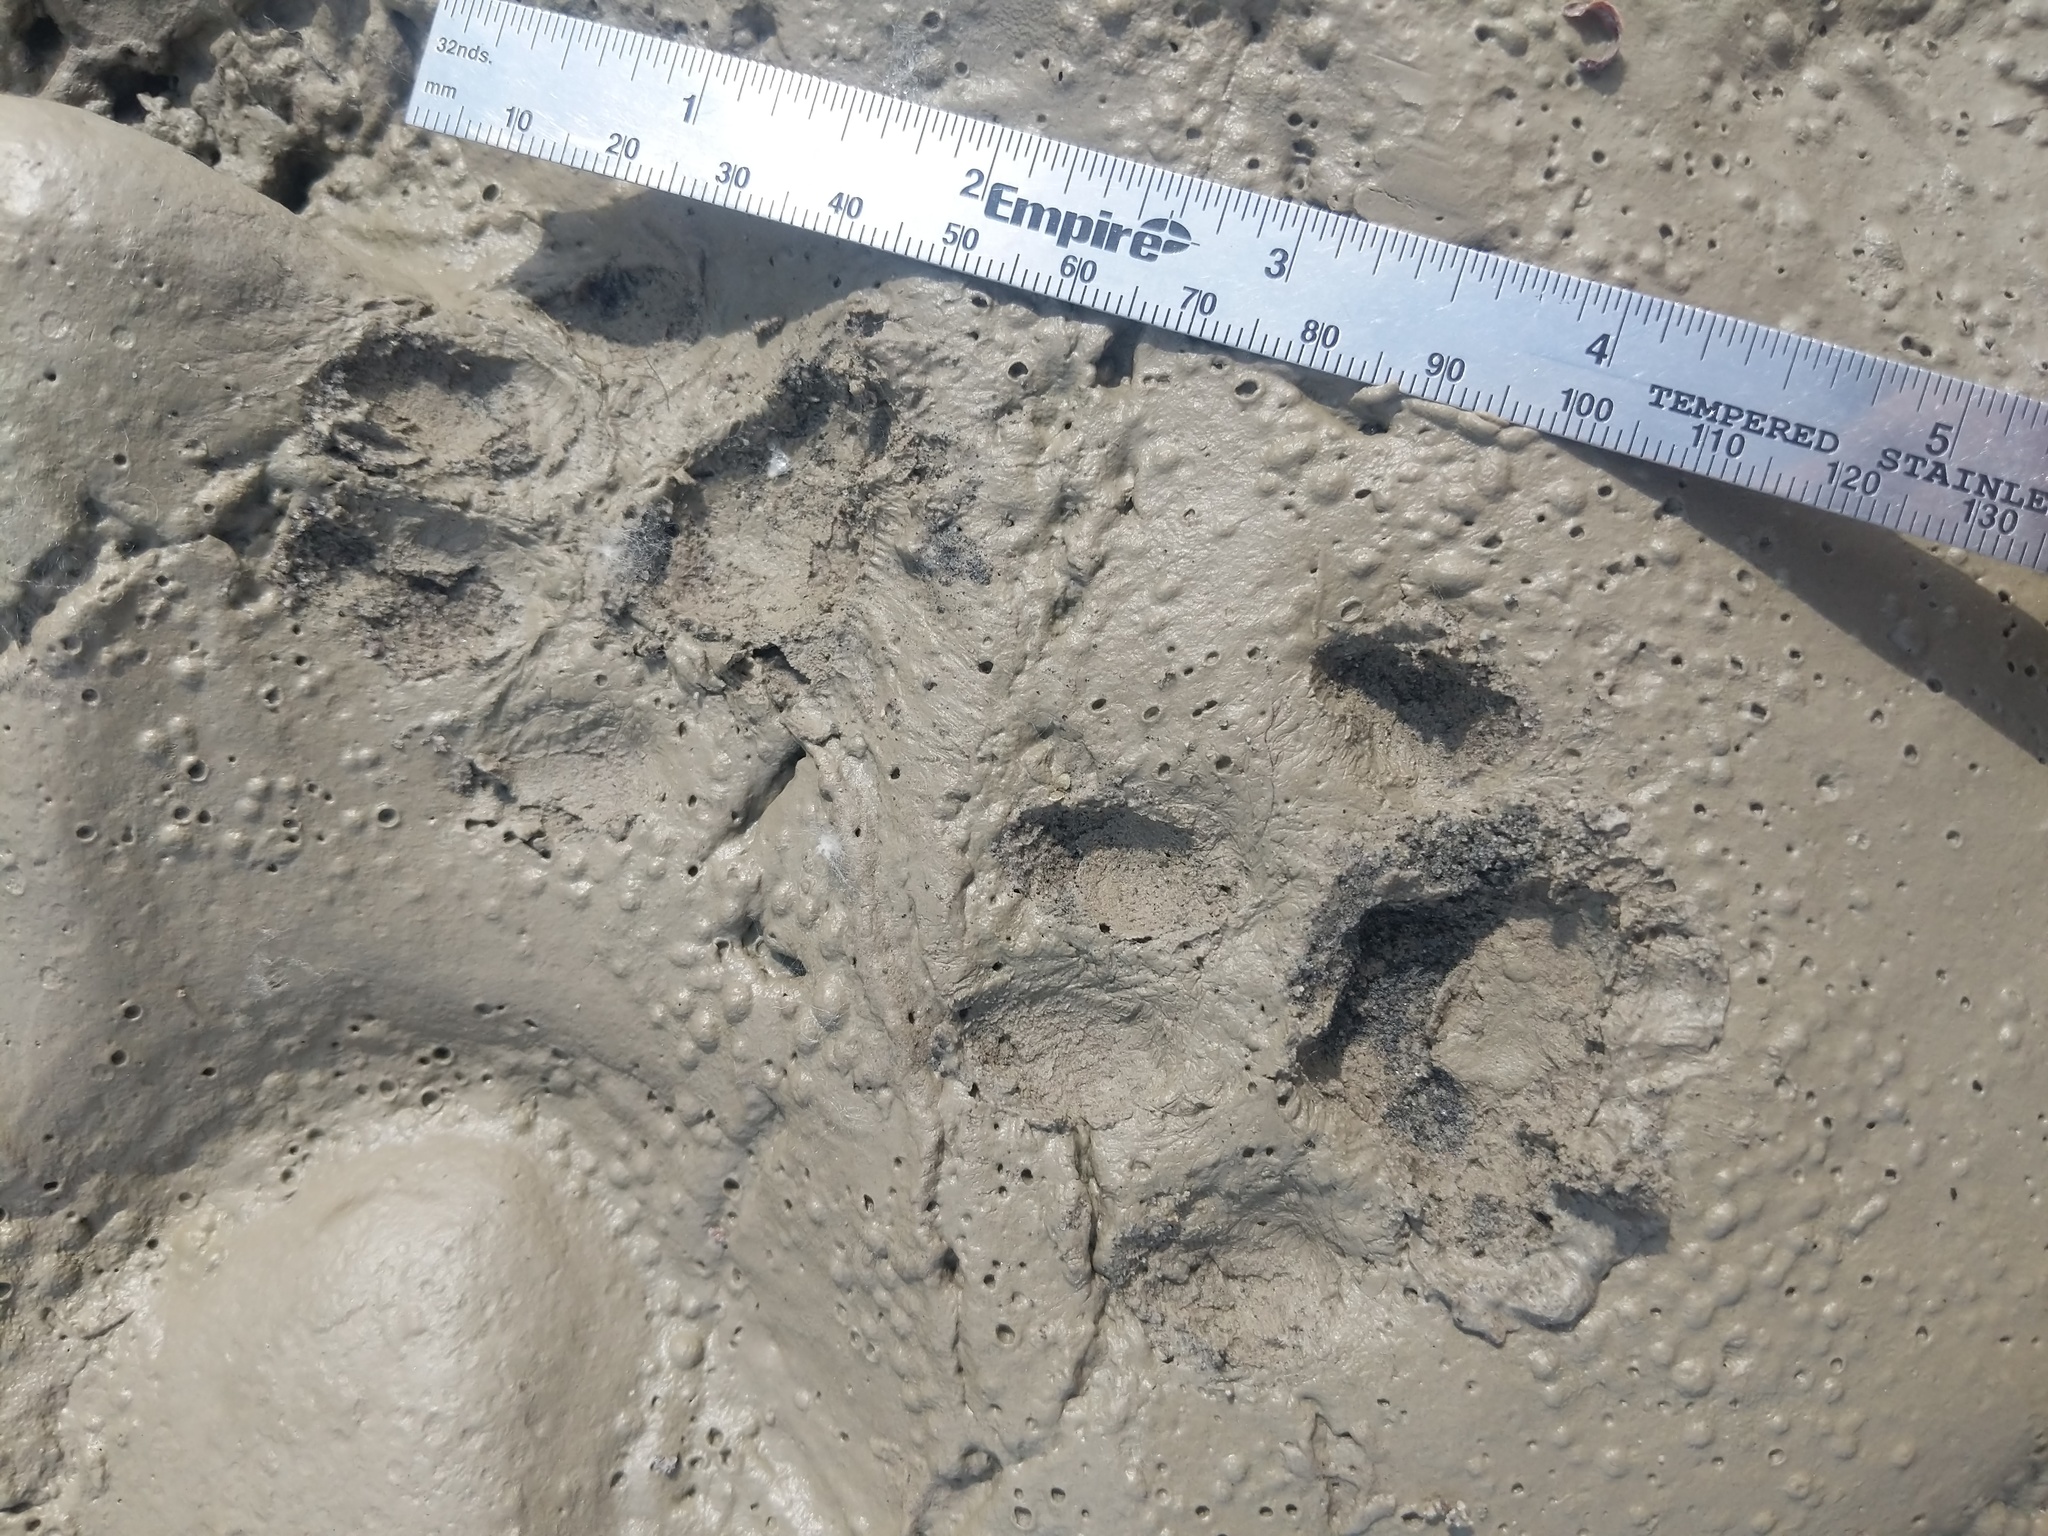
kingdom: Animalia
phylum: Chordata
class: Mammalia
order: Carnivora
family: Felidae
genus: Lynx
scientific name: Lynx rufus
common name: Bobcat
